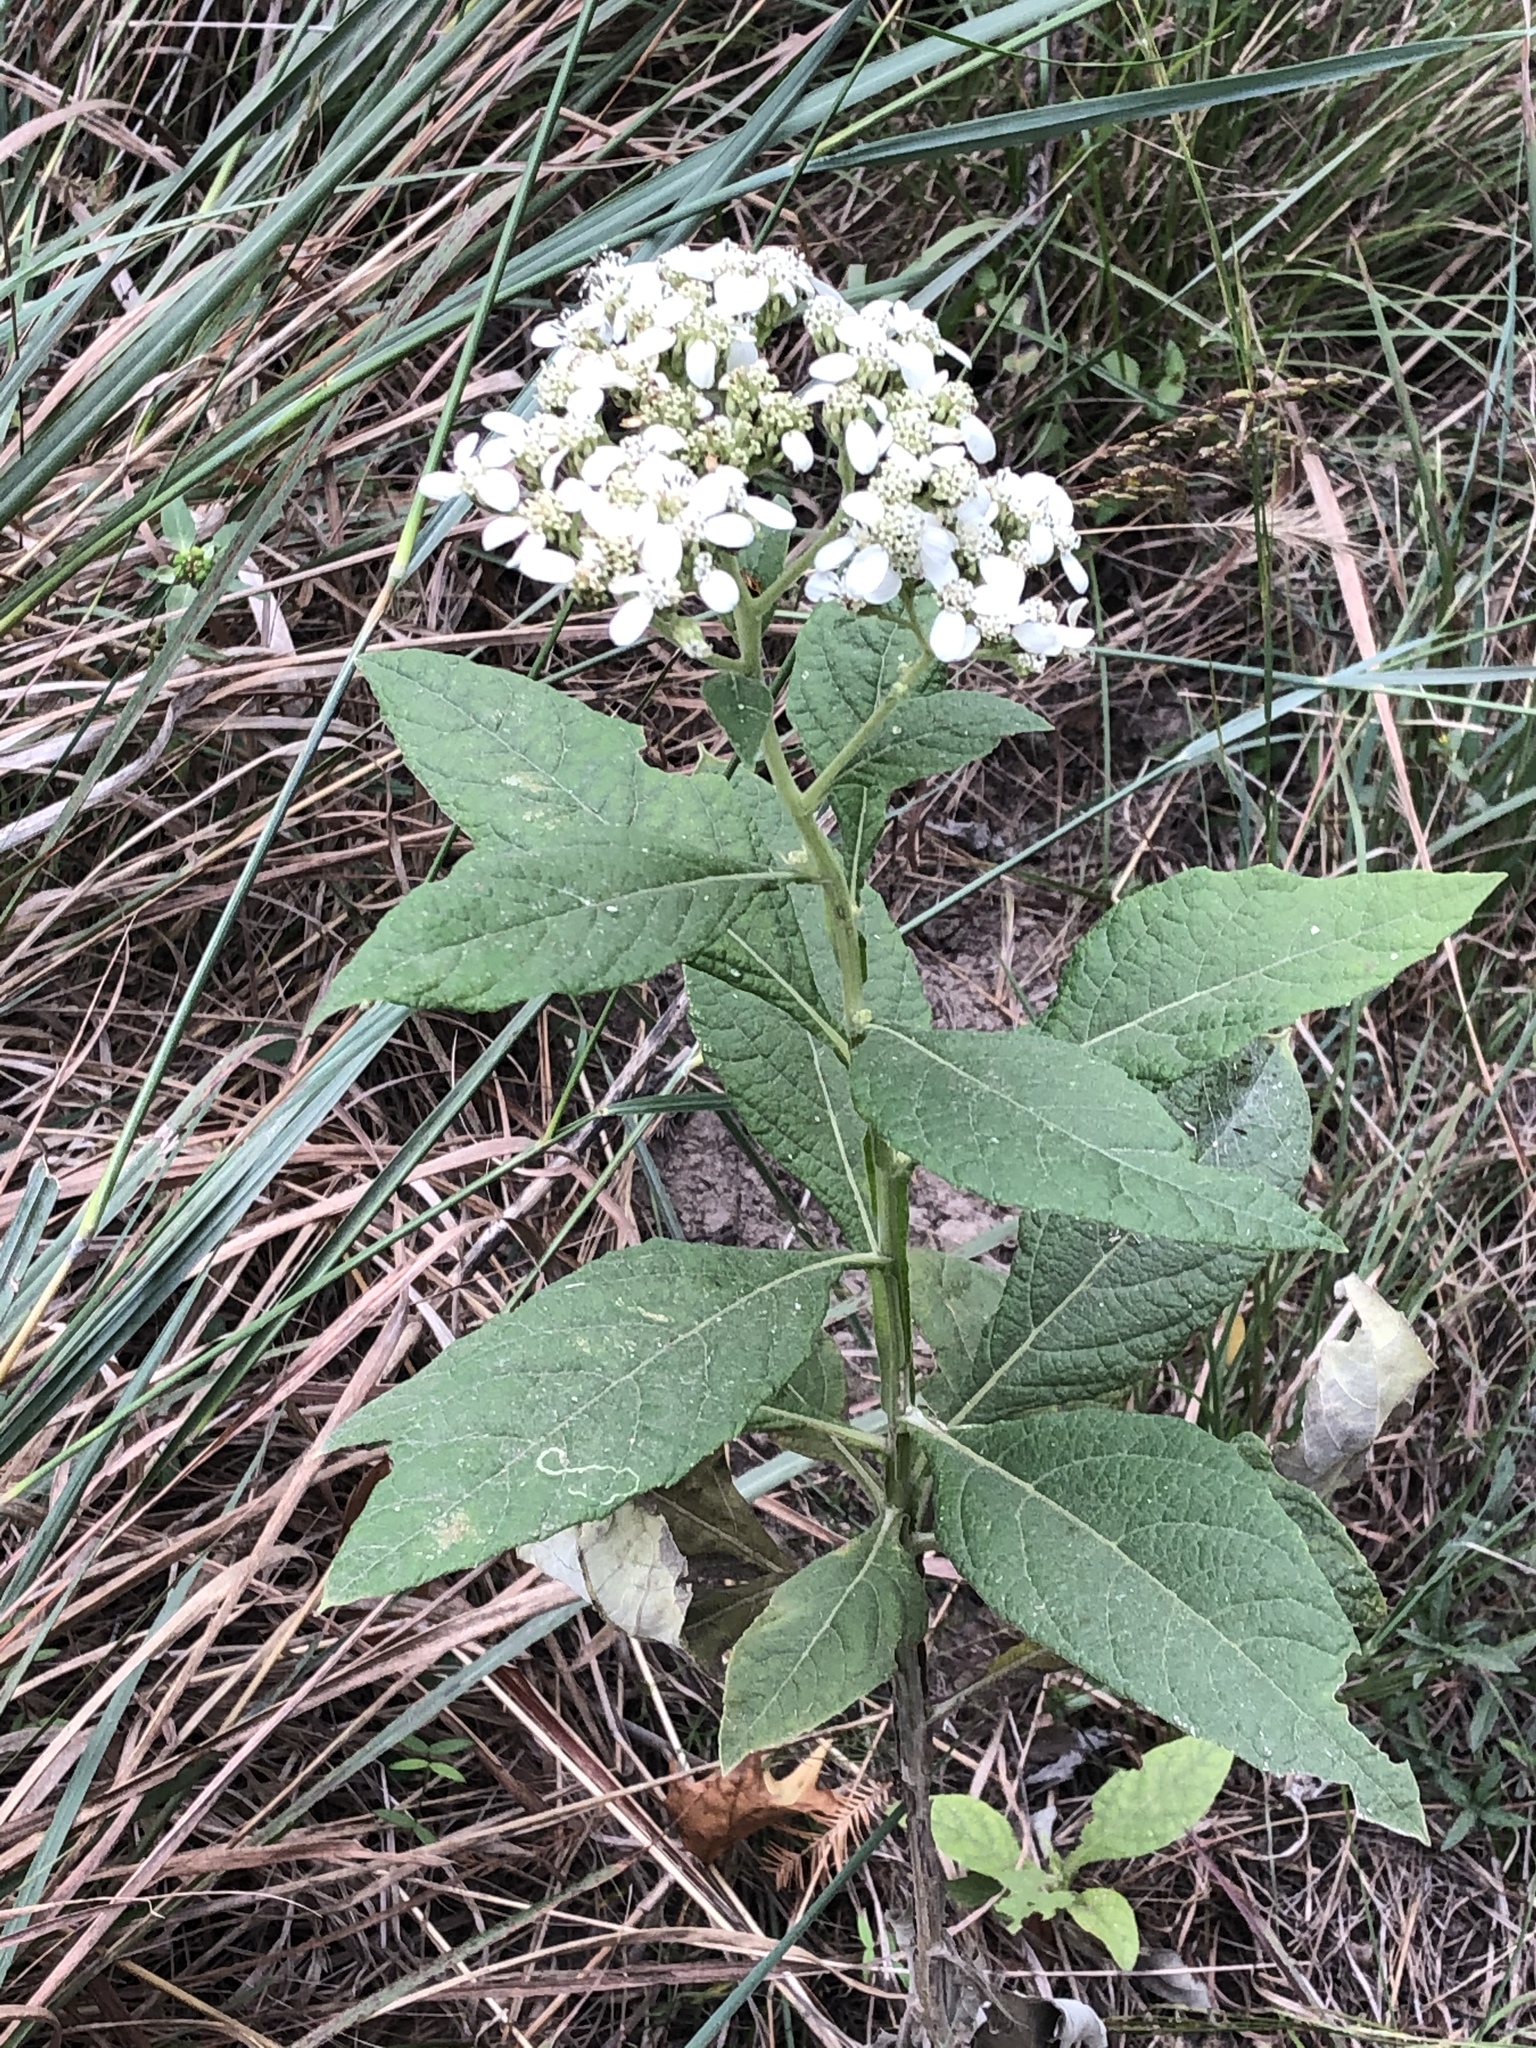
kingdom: Plantae
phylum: Tracheophyta
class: Magnoliopsida
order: Asterales
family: Asteraceae
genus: Verbesina
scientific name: Verbesina virginica
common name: Frostweed
